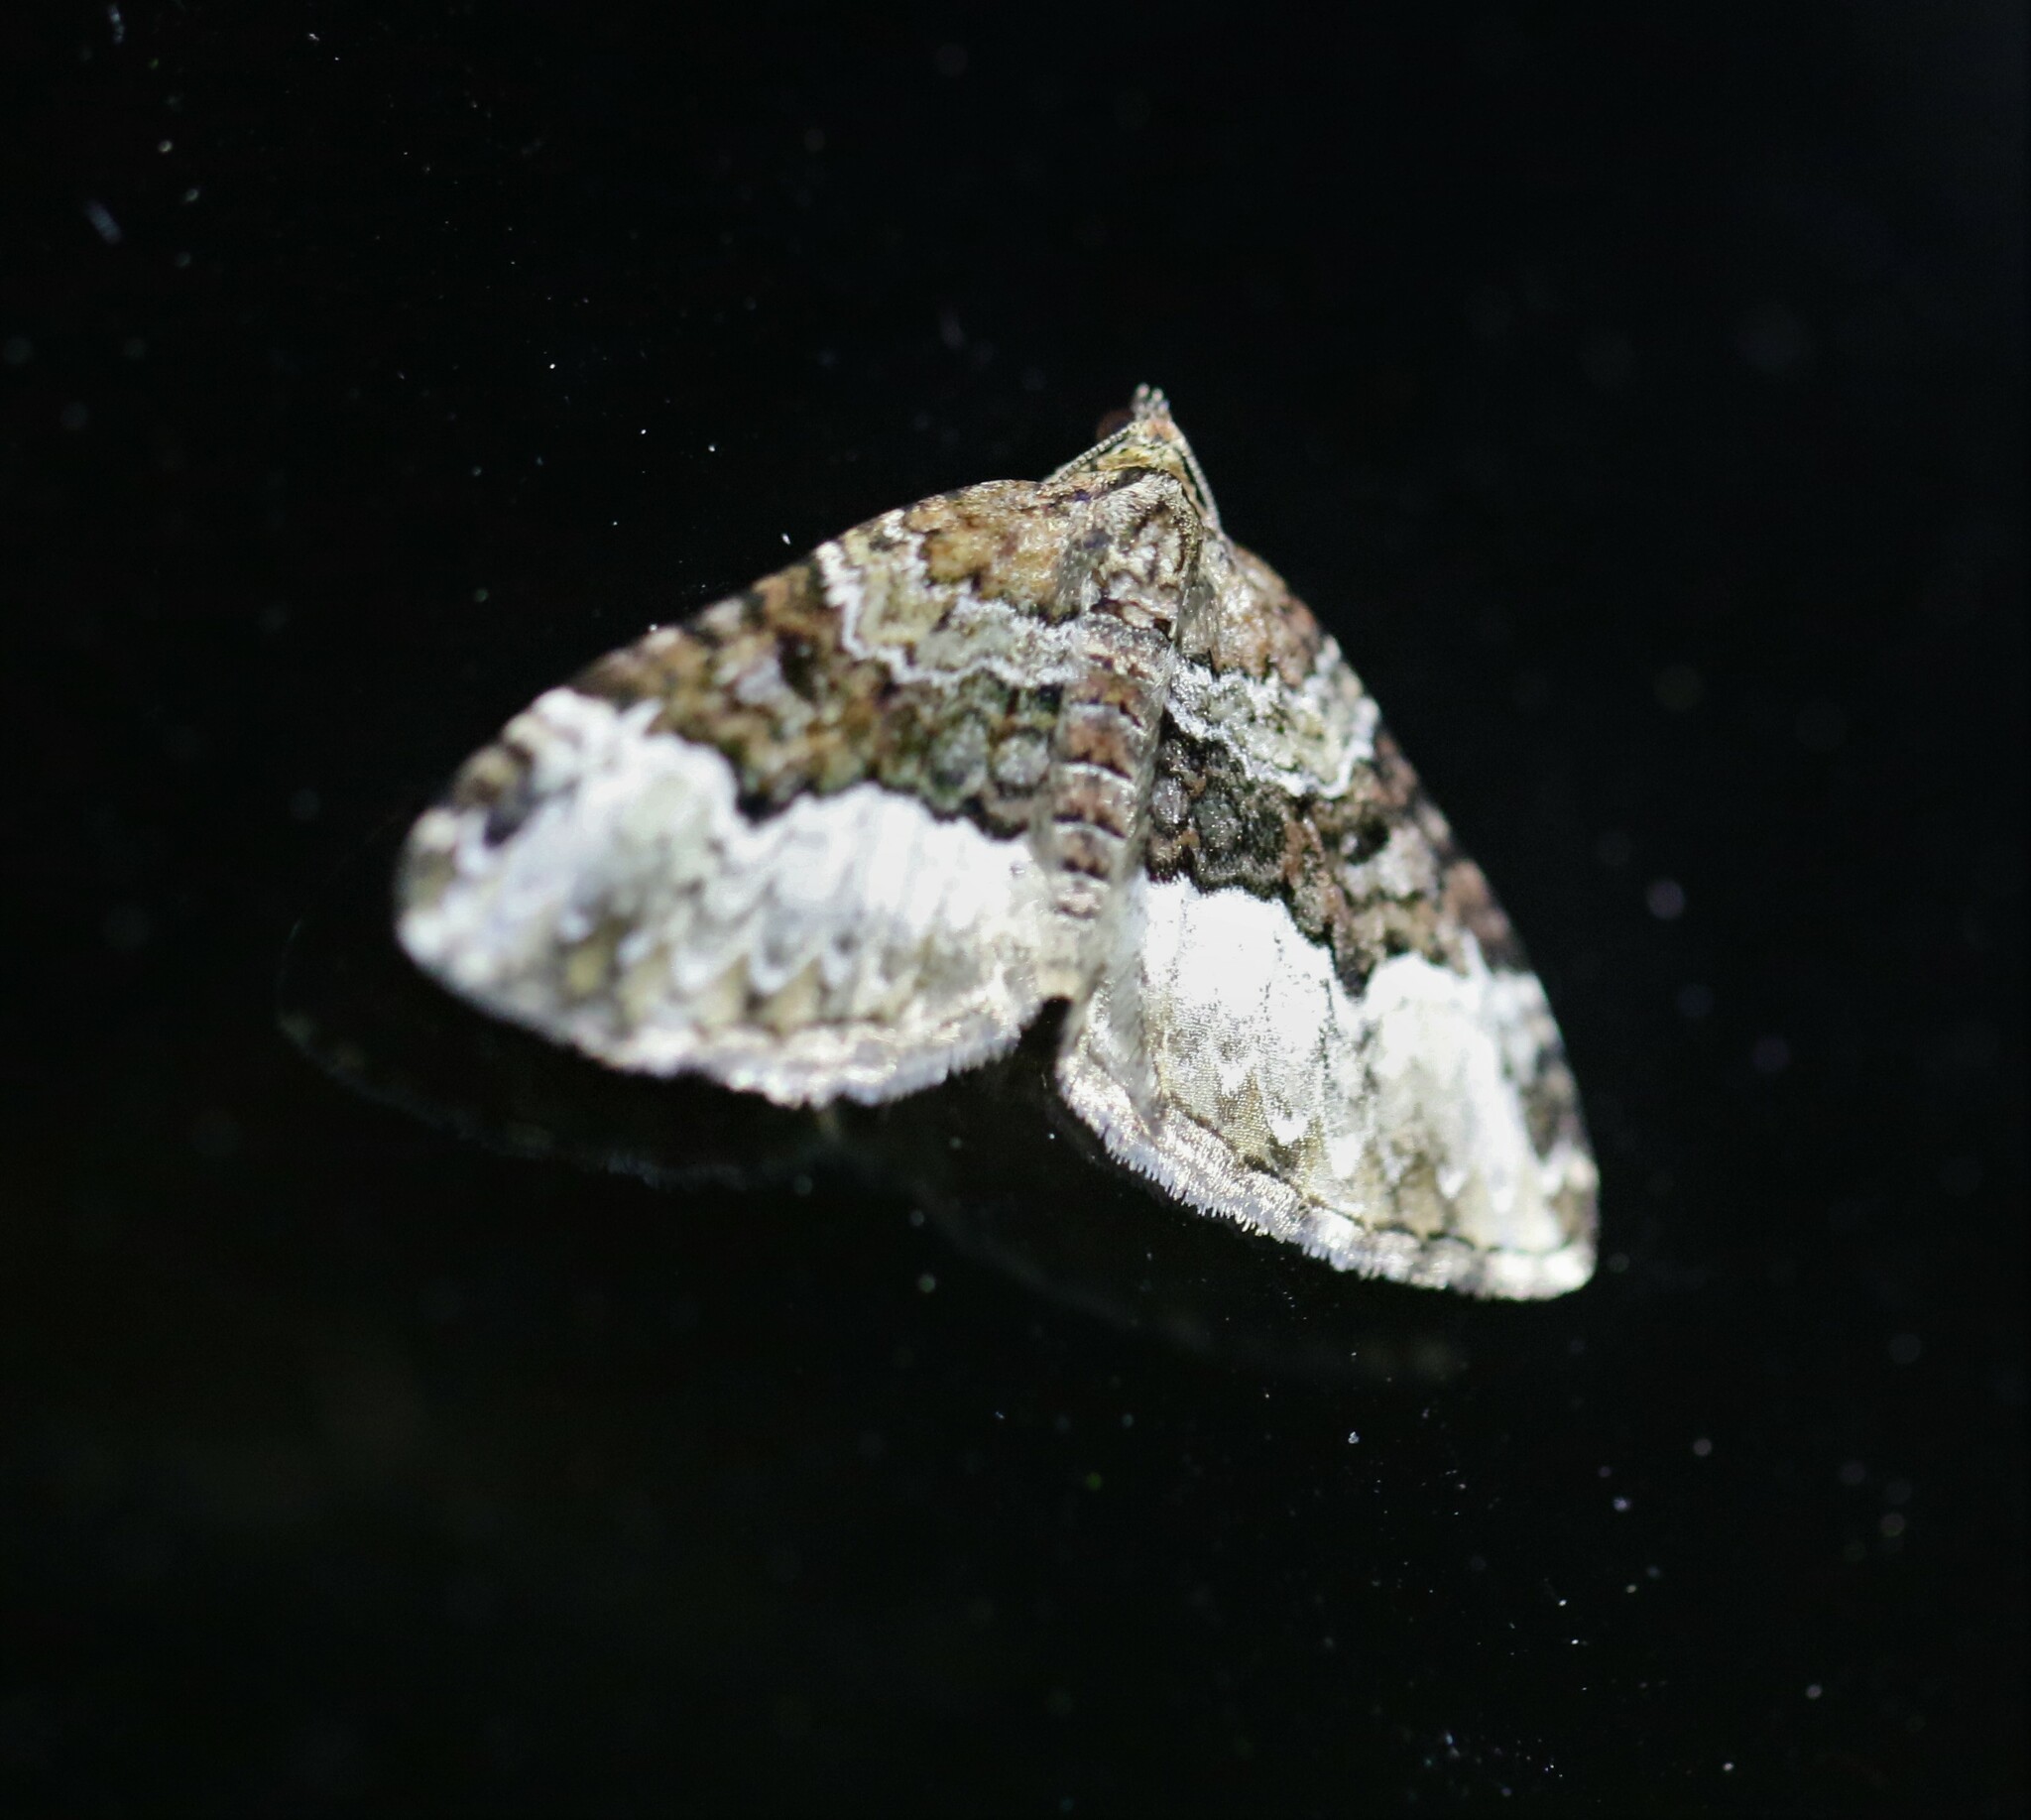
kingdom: Animalia
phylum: Arthropoda
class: Insecta
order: Lepidoptera
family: Geometridae
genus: Euphyia
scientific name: Euphyia intermediata
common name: Sharp-angled carpet
